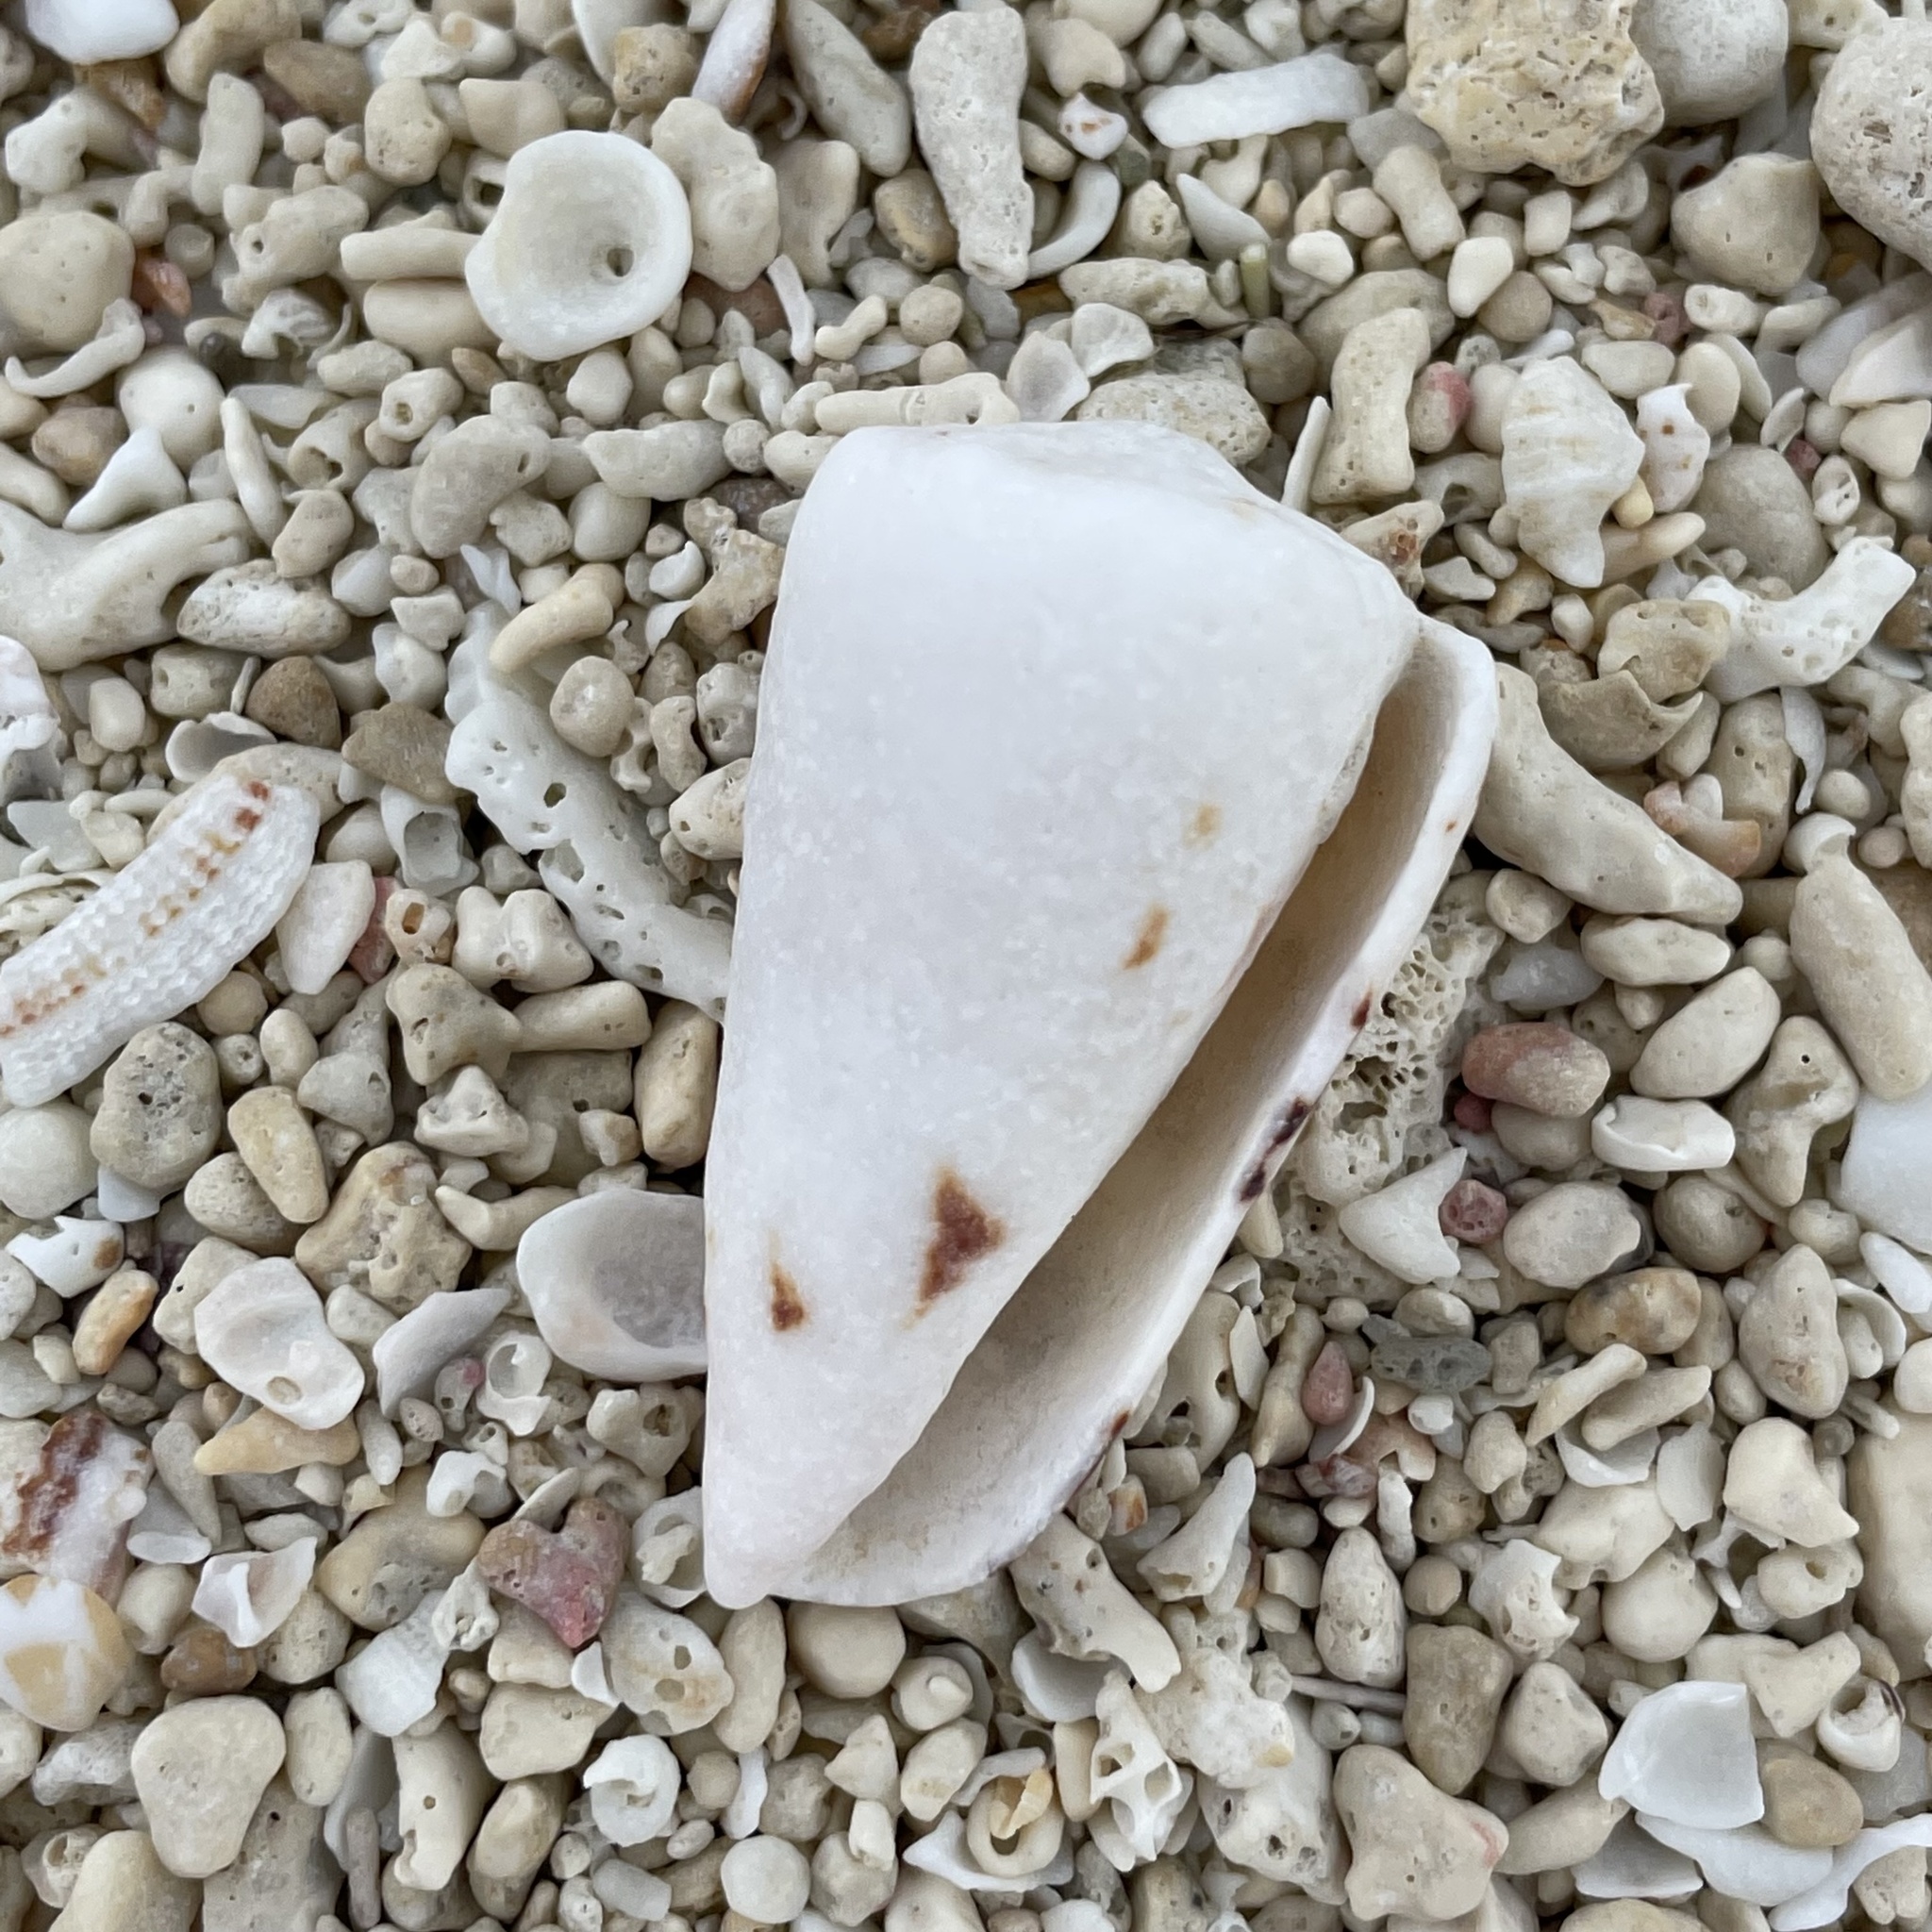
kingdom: Animalia
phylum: Mollusca
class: Gastropoda
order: Neogastropoda
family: Conidae
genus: Conus
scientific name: Conus bandanus
